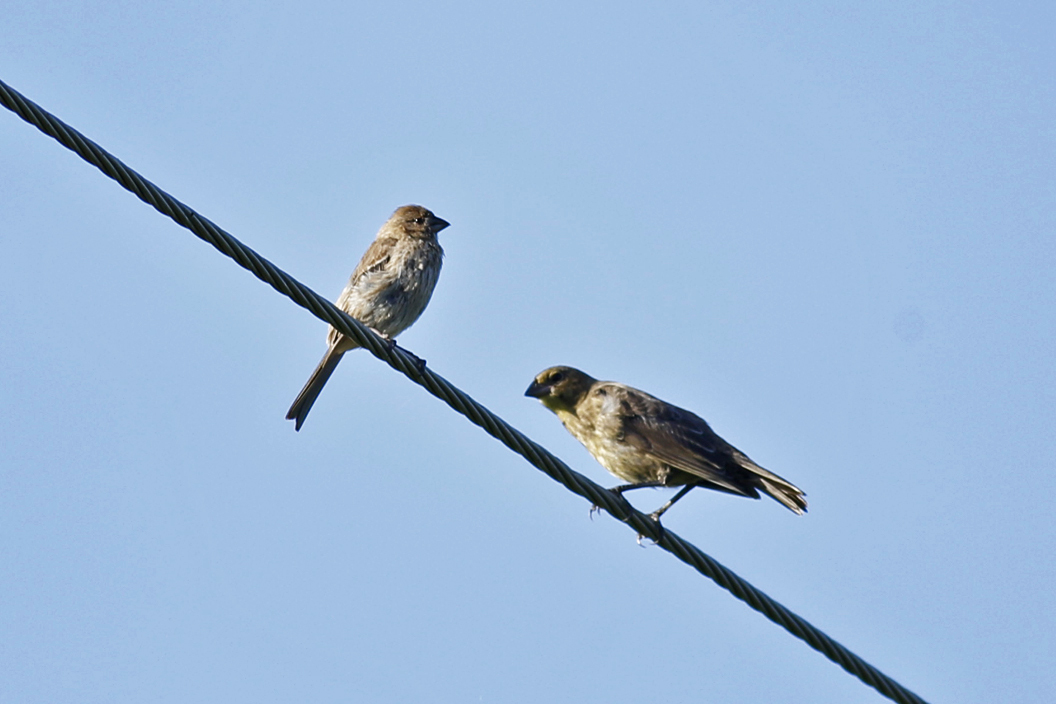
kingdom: Animalia
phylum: Chordata
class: Aves
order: Passeriformes
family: Icteridae
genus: Molothrus
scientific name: Molothrus ater
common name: Brown-headed cowbird
